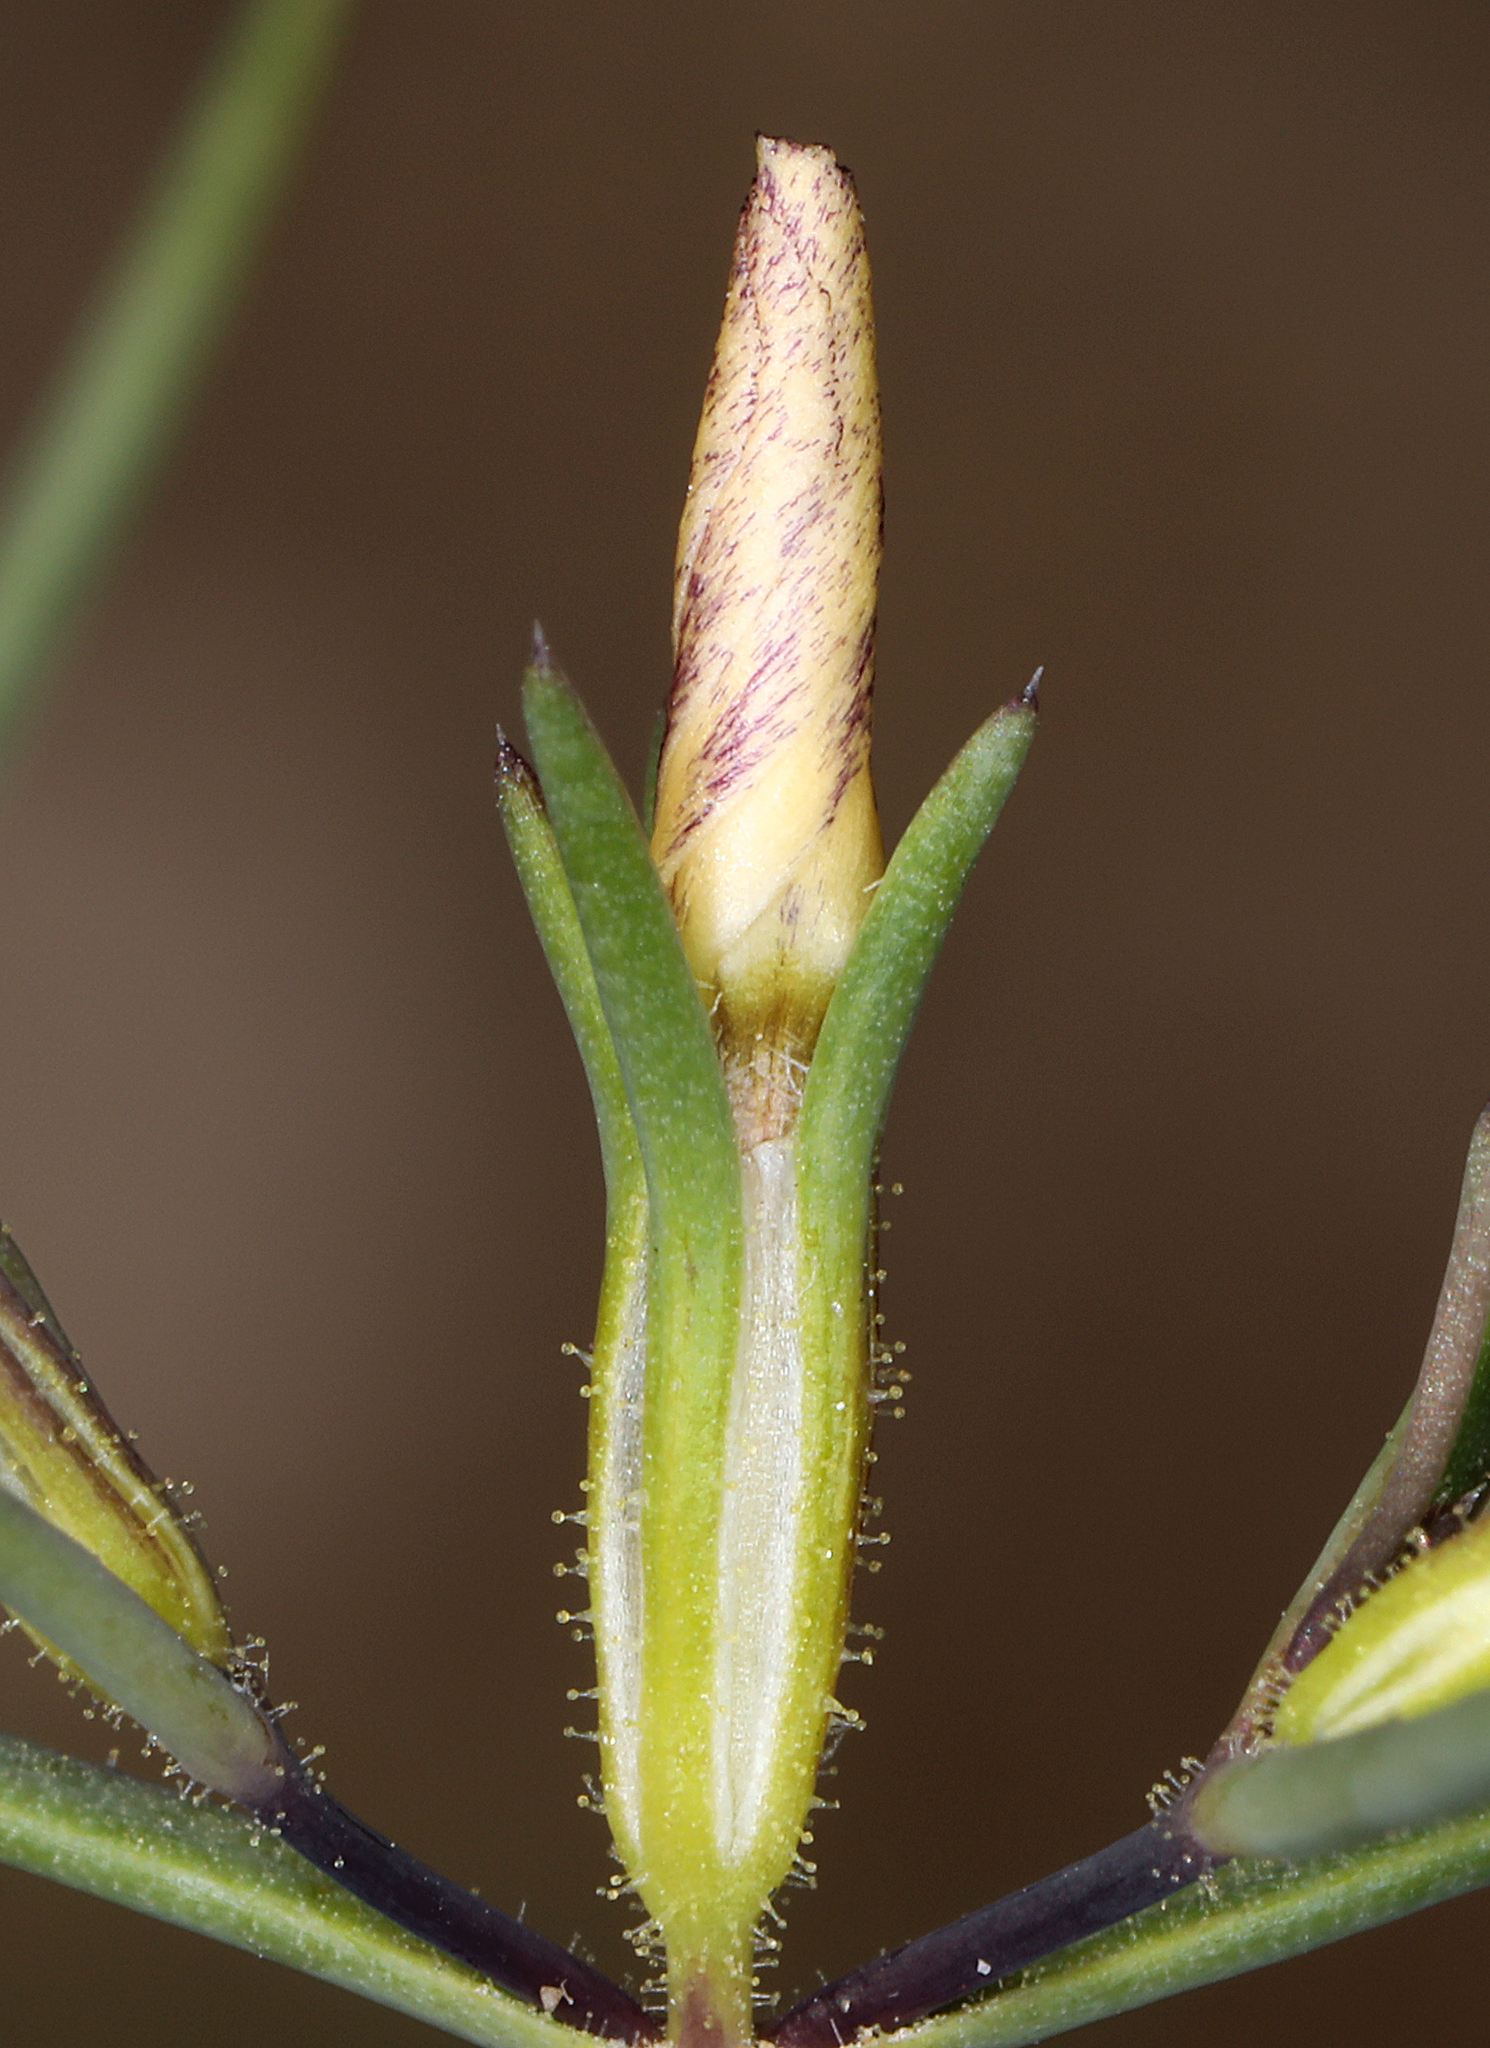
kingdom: Plantae
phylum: Tracheophyta
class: Magnoliopsida
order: Ericales
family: Polemoniaceae
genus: Linanthus
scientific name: Linanthus jonesii
